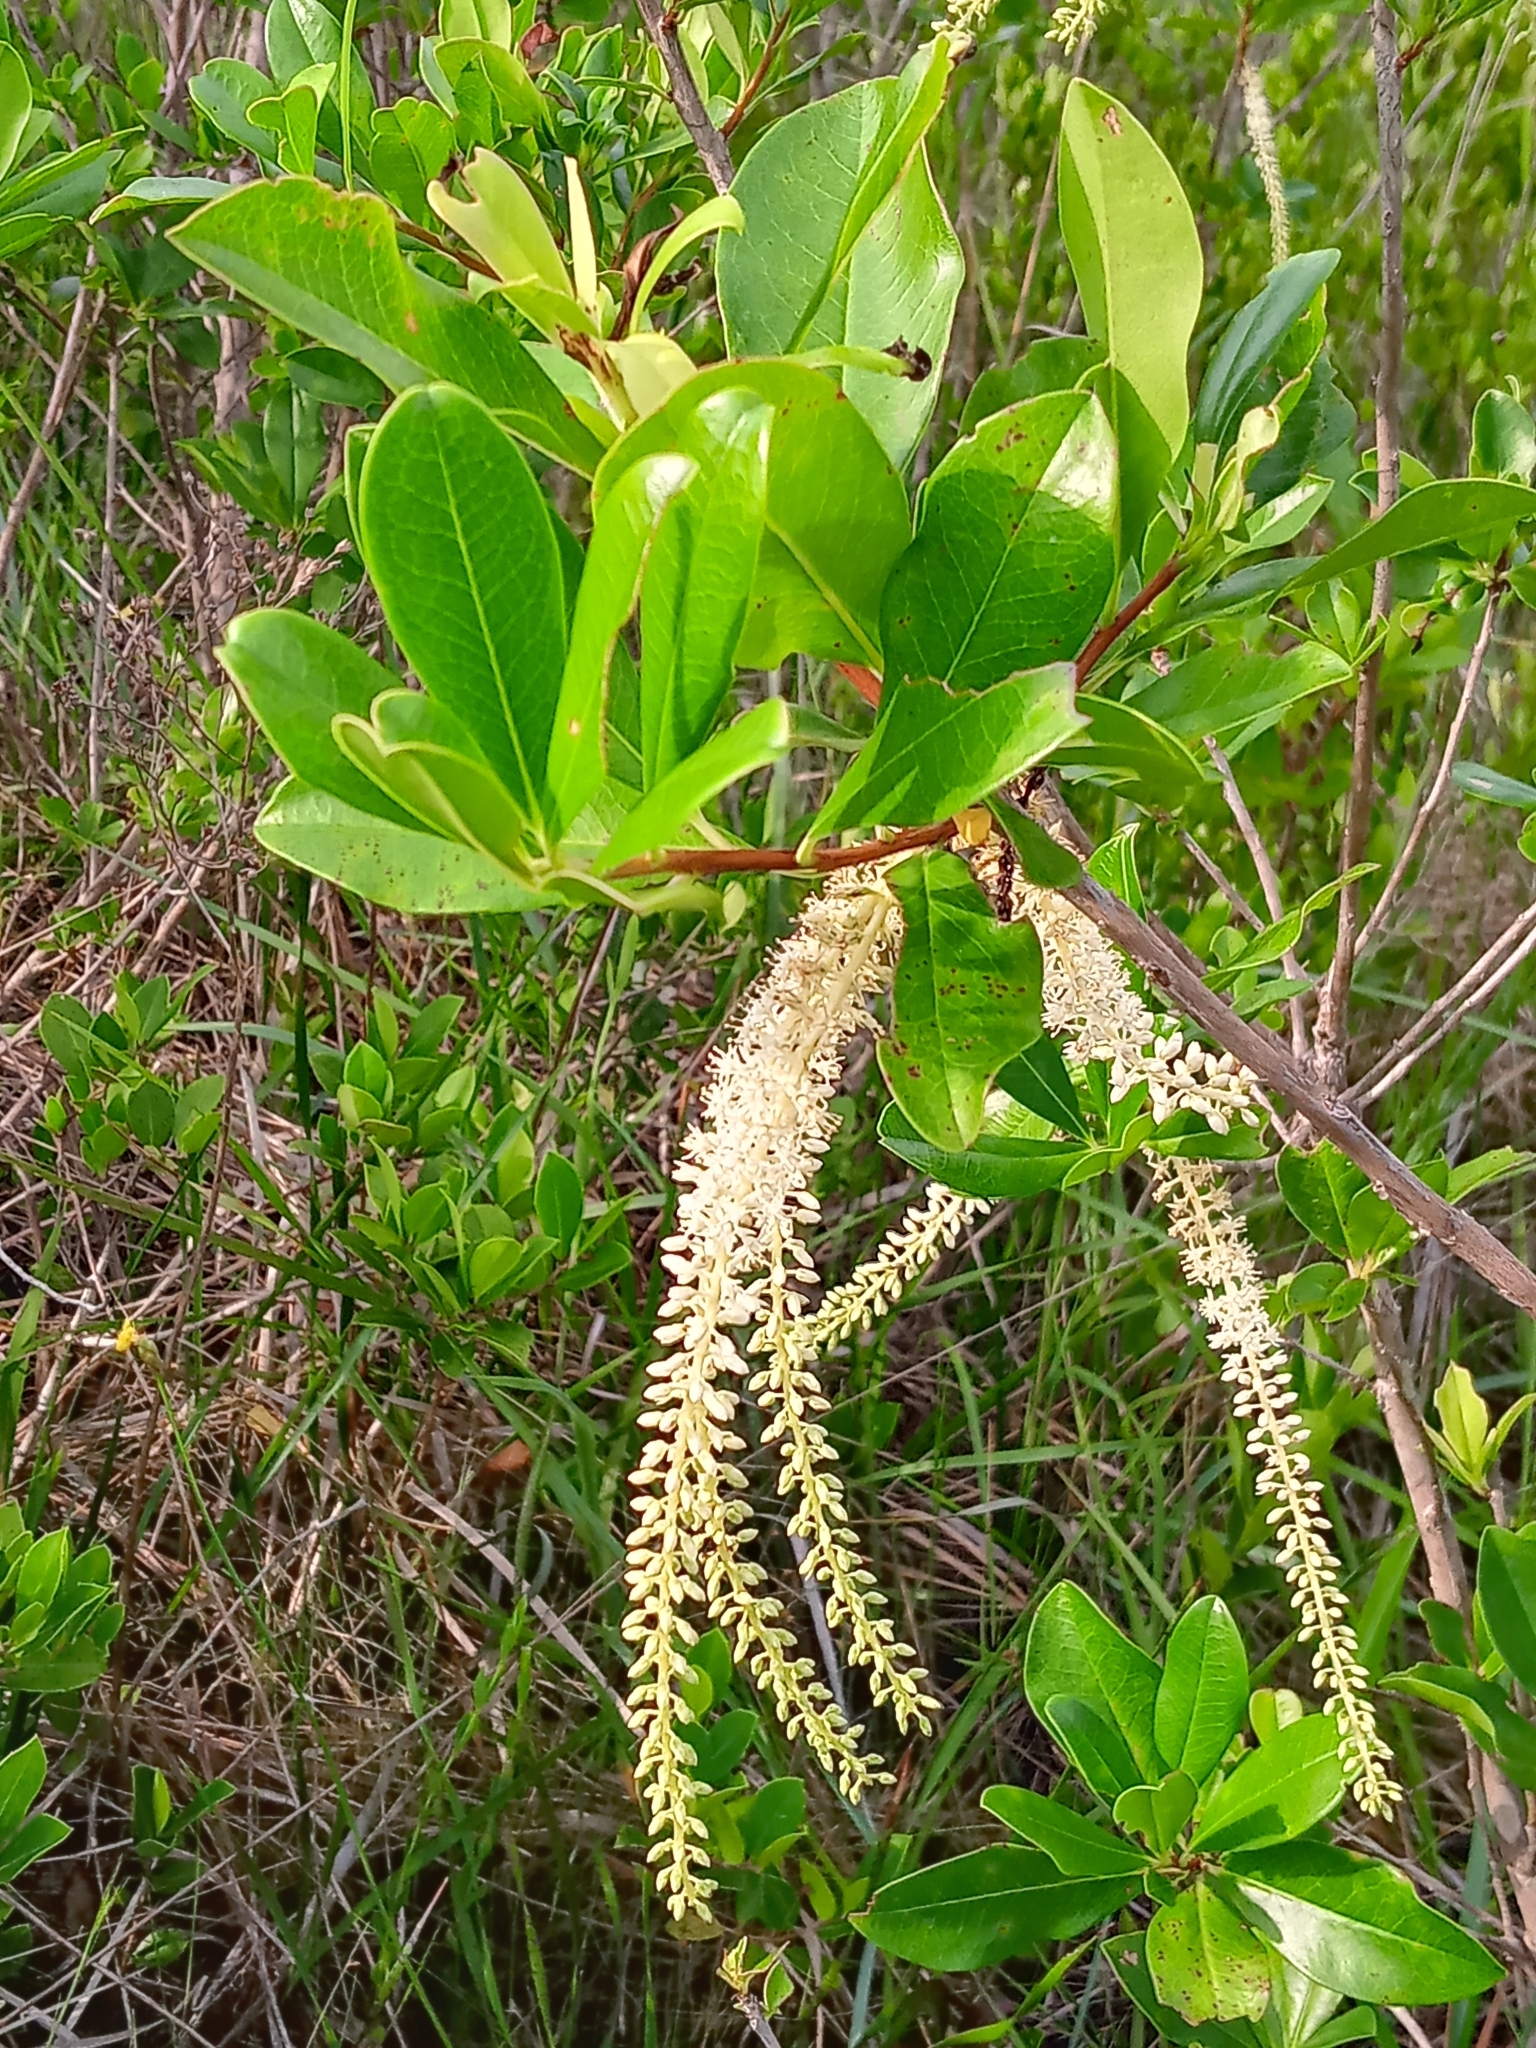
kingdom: Plantae
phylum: Tracheophyta
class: Magnoliopsida
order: Ericales
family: Cyrillaceae
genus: Cyrilla
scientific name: Cyrilla racemiflora
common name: Black titi
